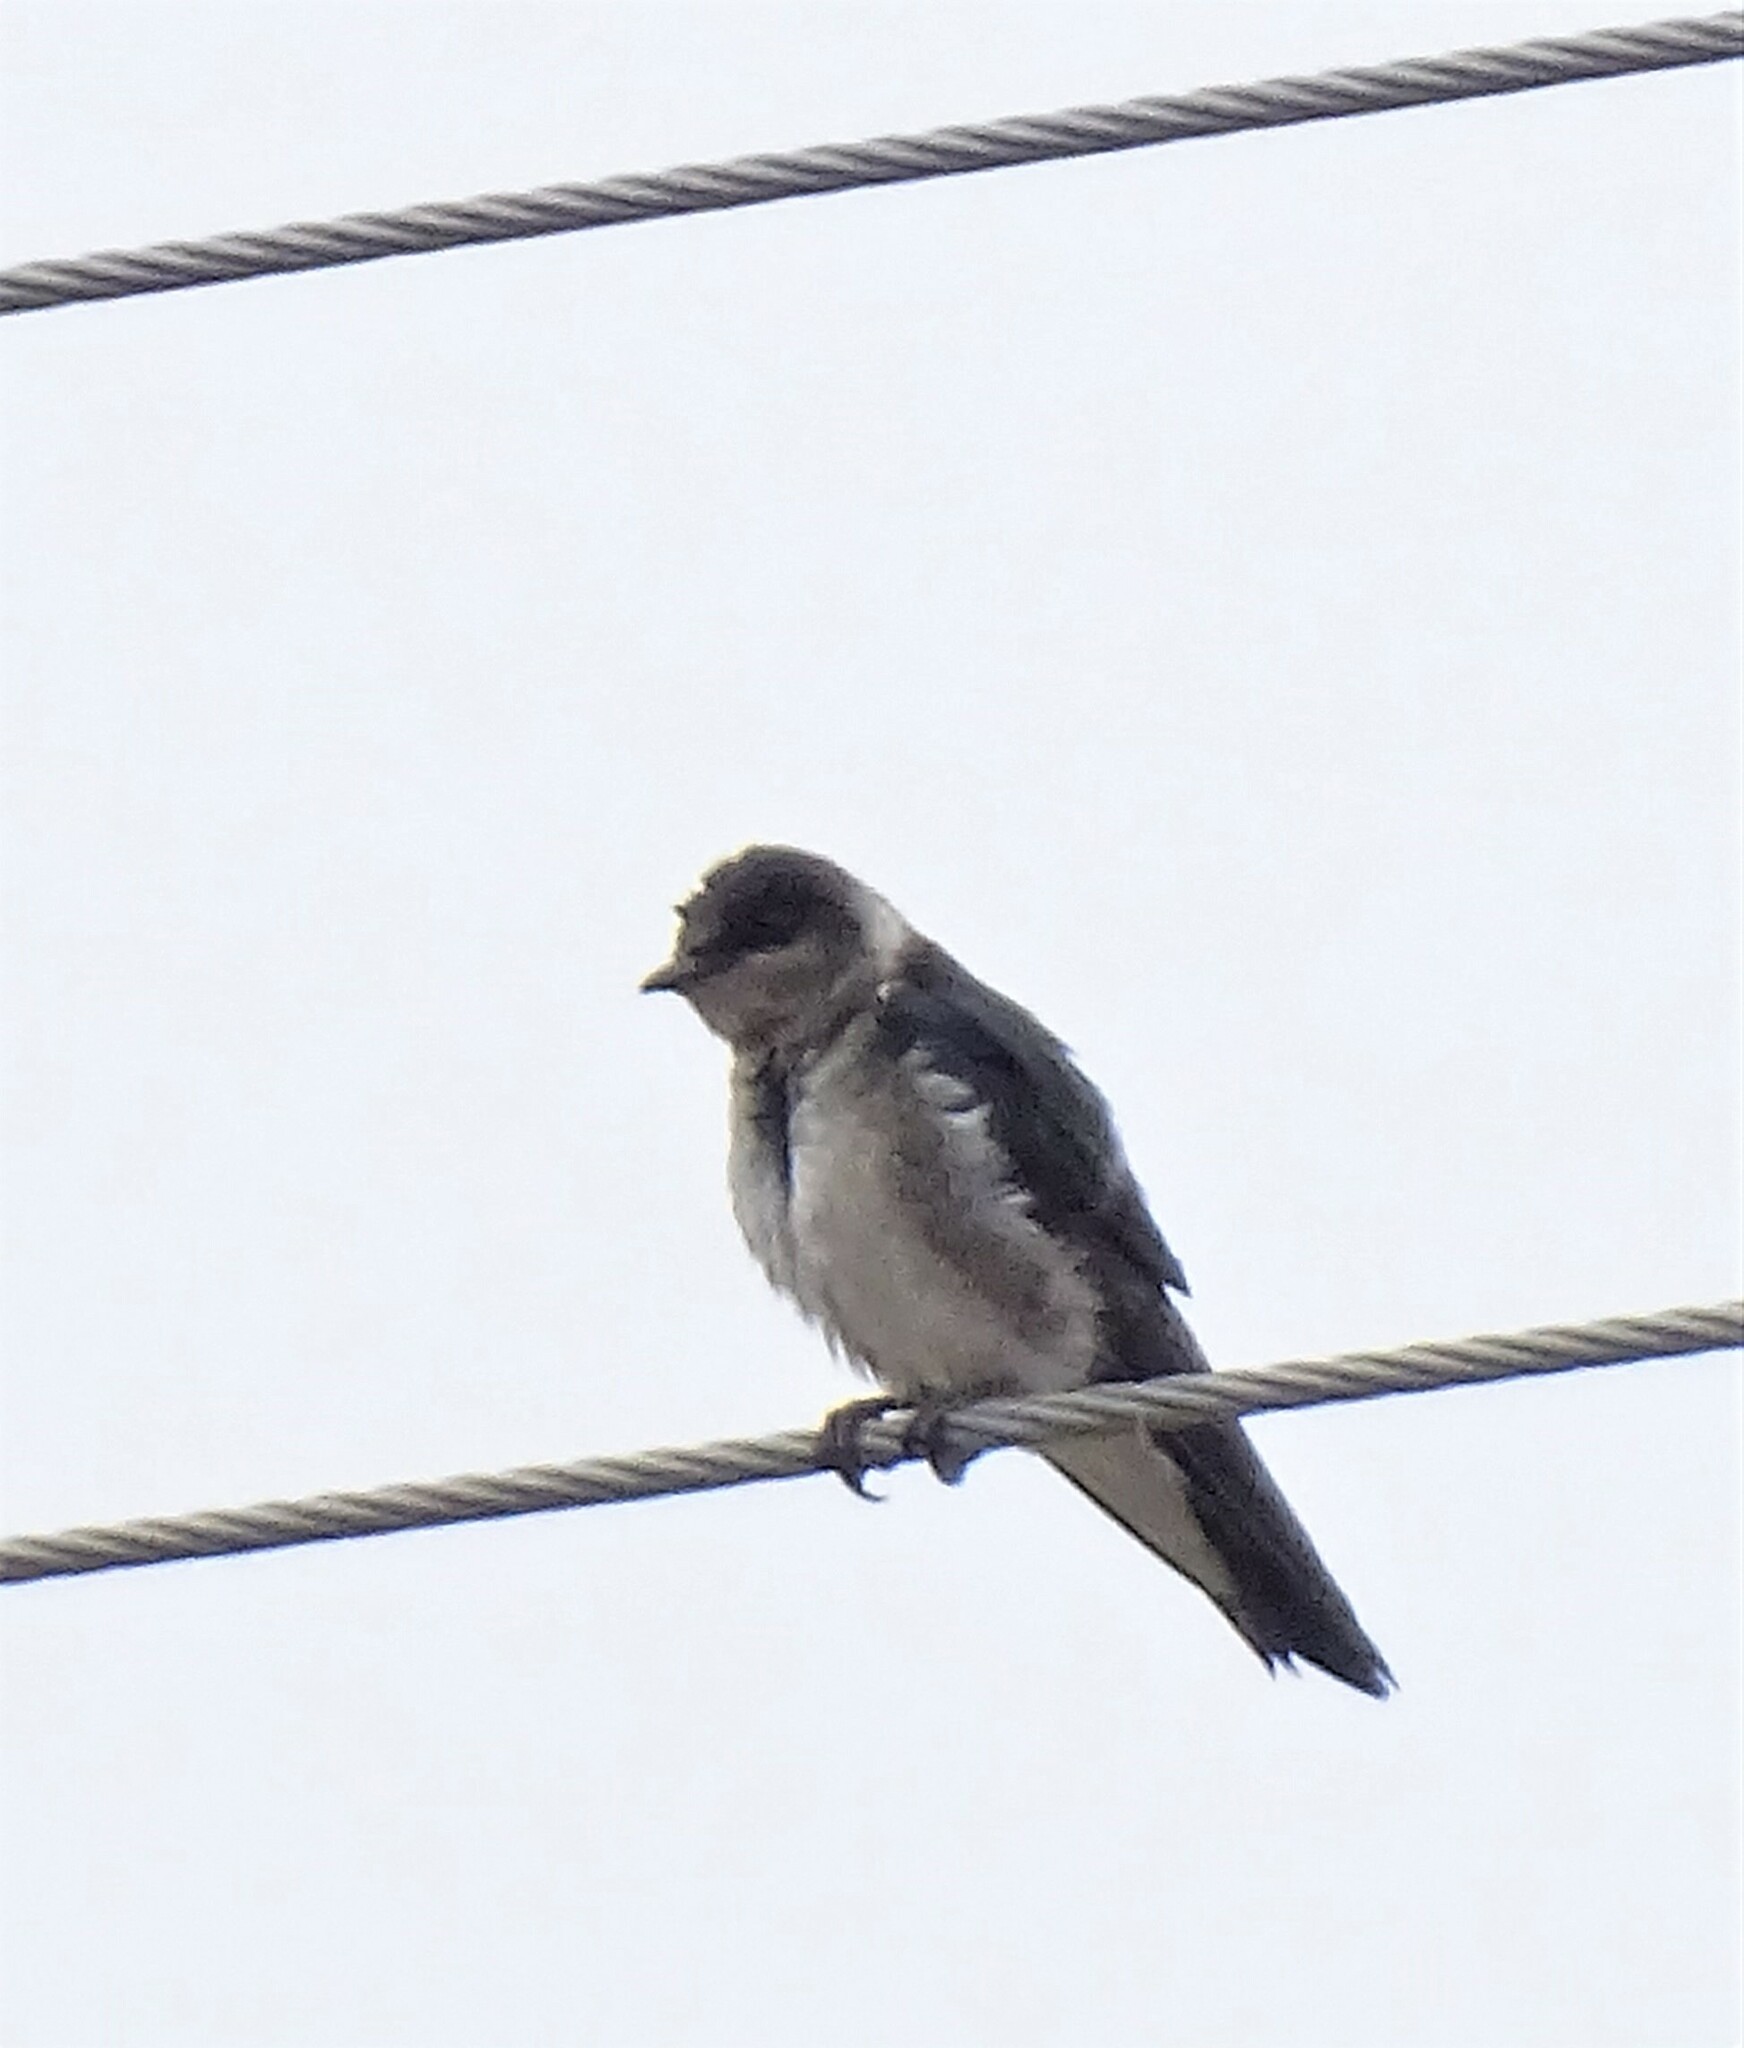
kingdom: Animalia
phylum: Chordata
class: Aves
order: Passeriformes
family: Hirundinidae
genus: Progne
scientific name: Progne subis
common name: Purple martin
